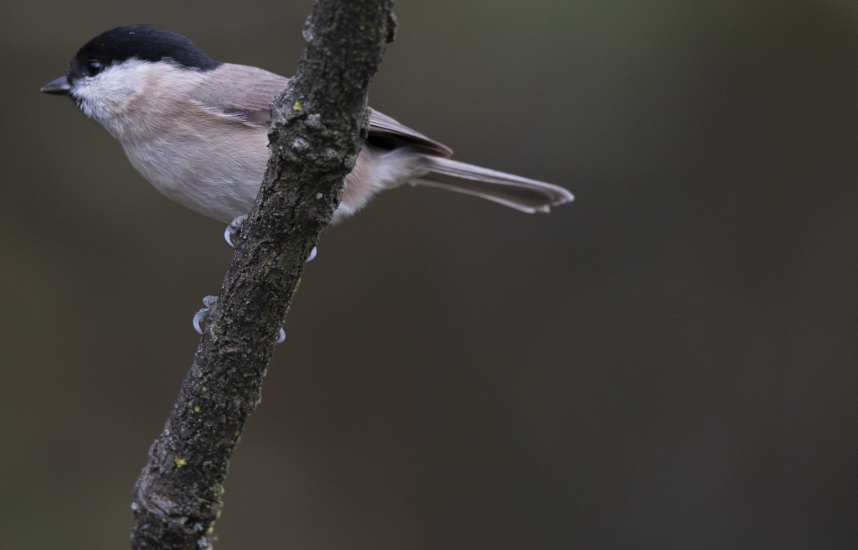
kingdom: Animalia
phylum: Chordata
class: Aves
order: Passeriformes
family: Paridae
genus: Poecile
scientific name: Poecile palustris
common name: Marsh tit
